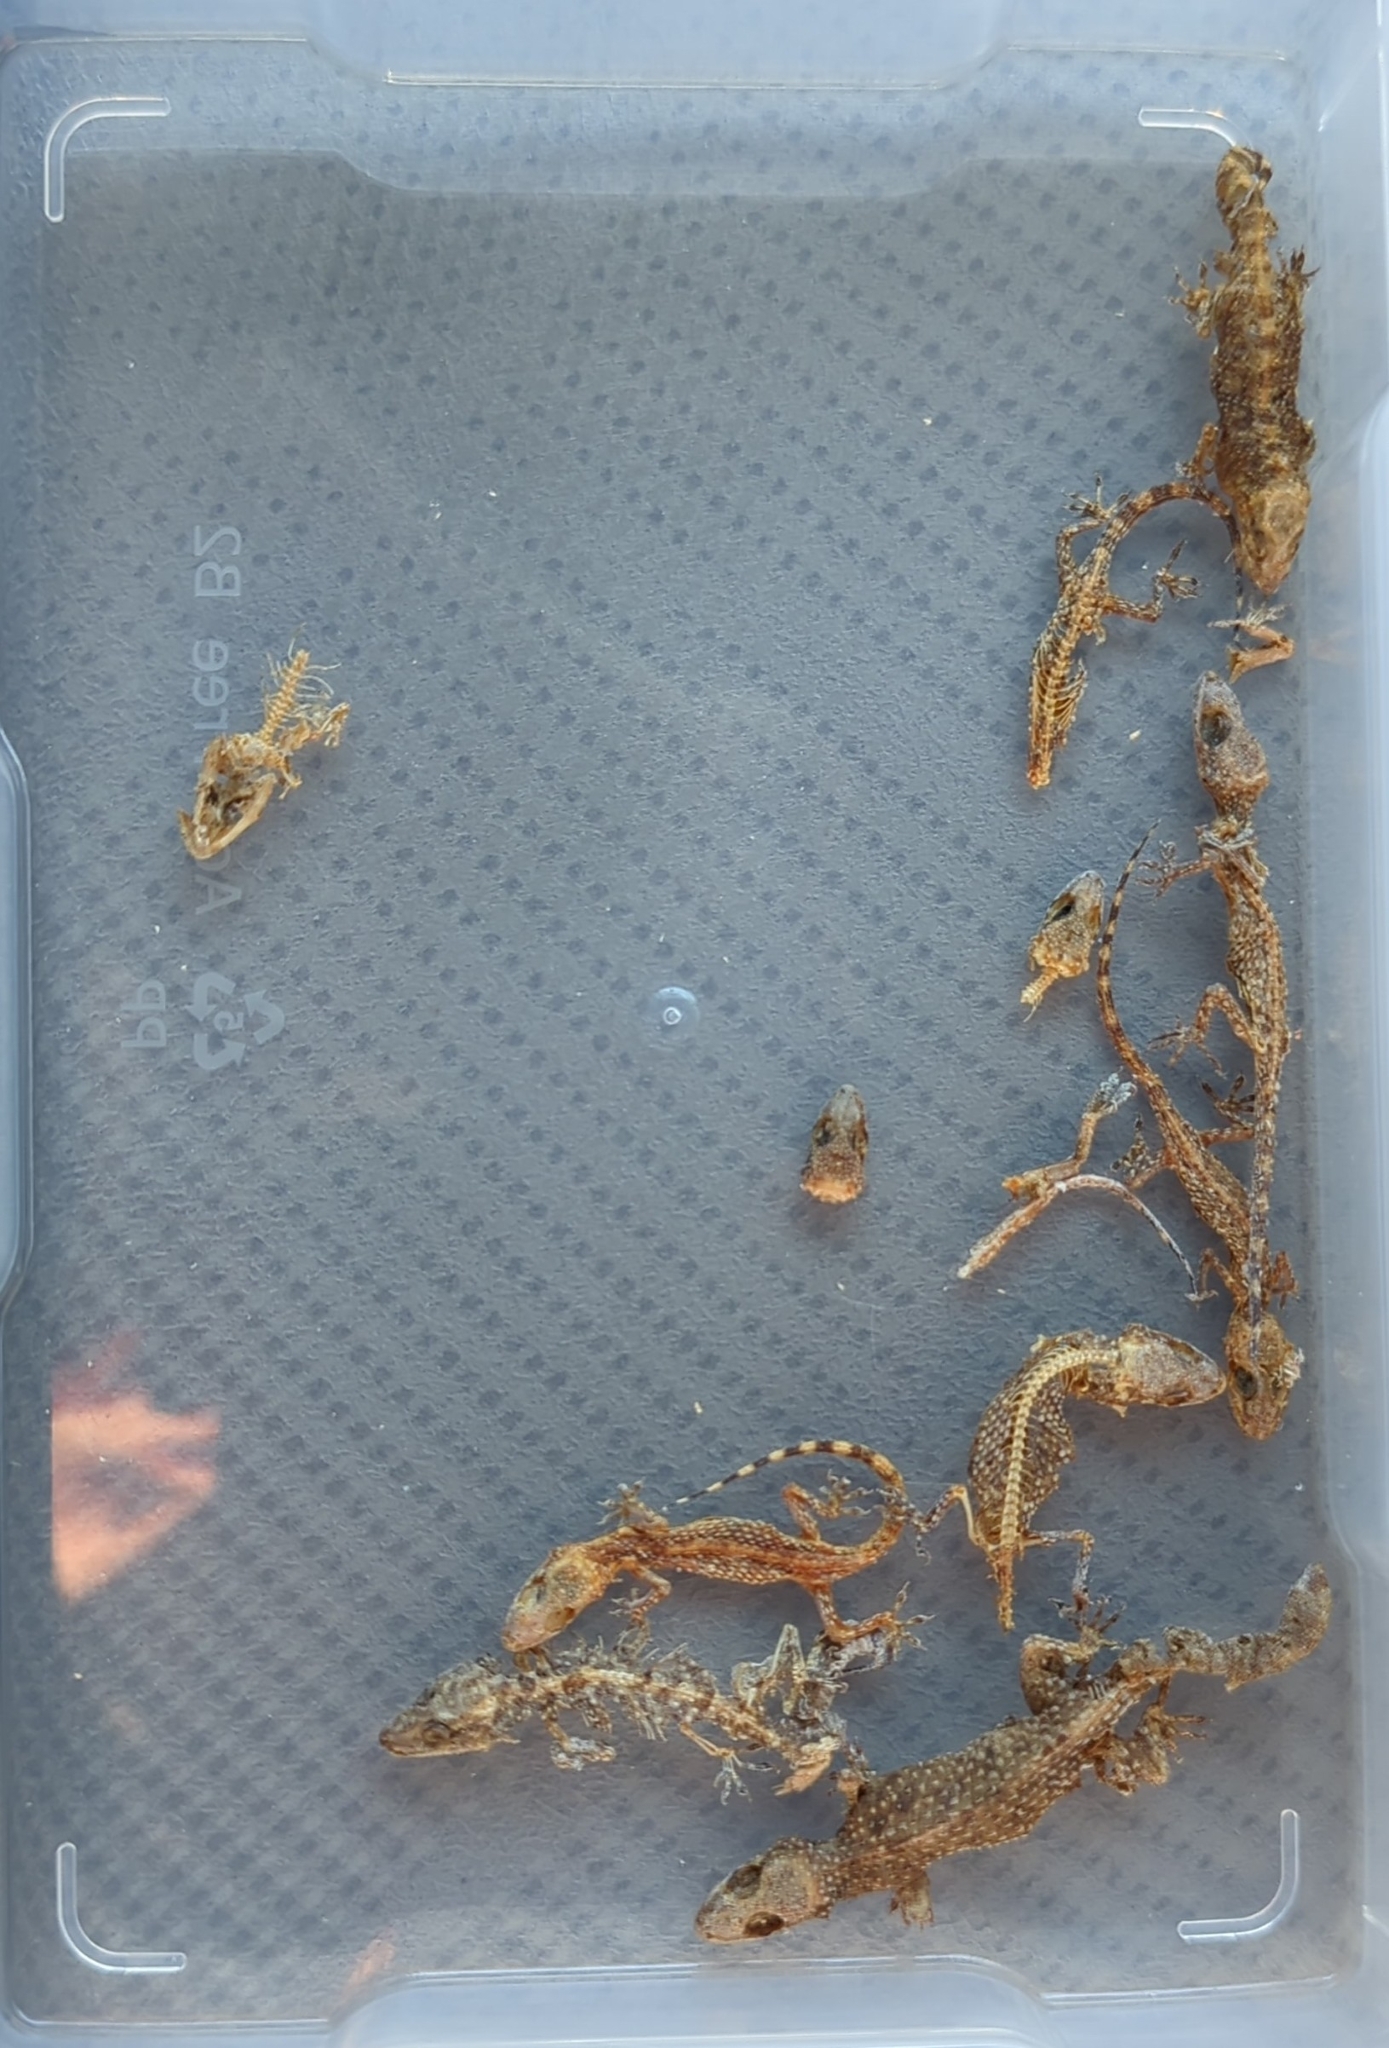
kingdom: Animalia
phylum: Chordata
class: Squamata
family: Gekkonidae
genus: Hemidactylus
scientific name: Hemidactylus turcicus
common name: Turkish gecko
